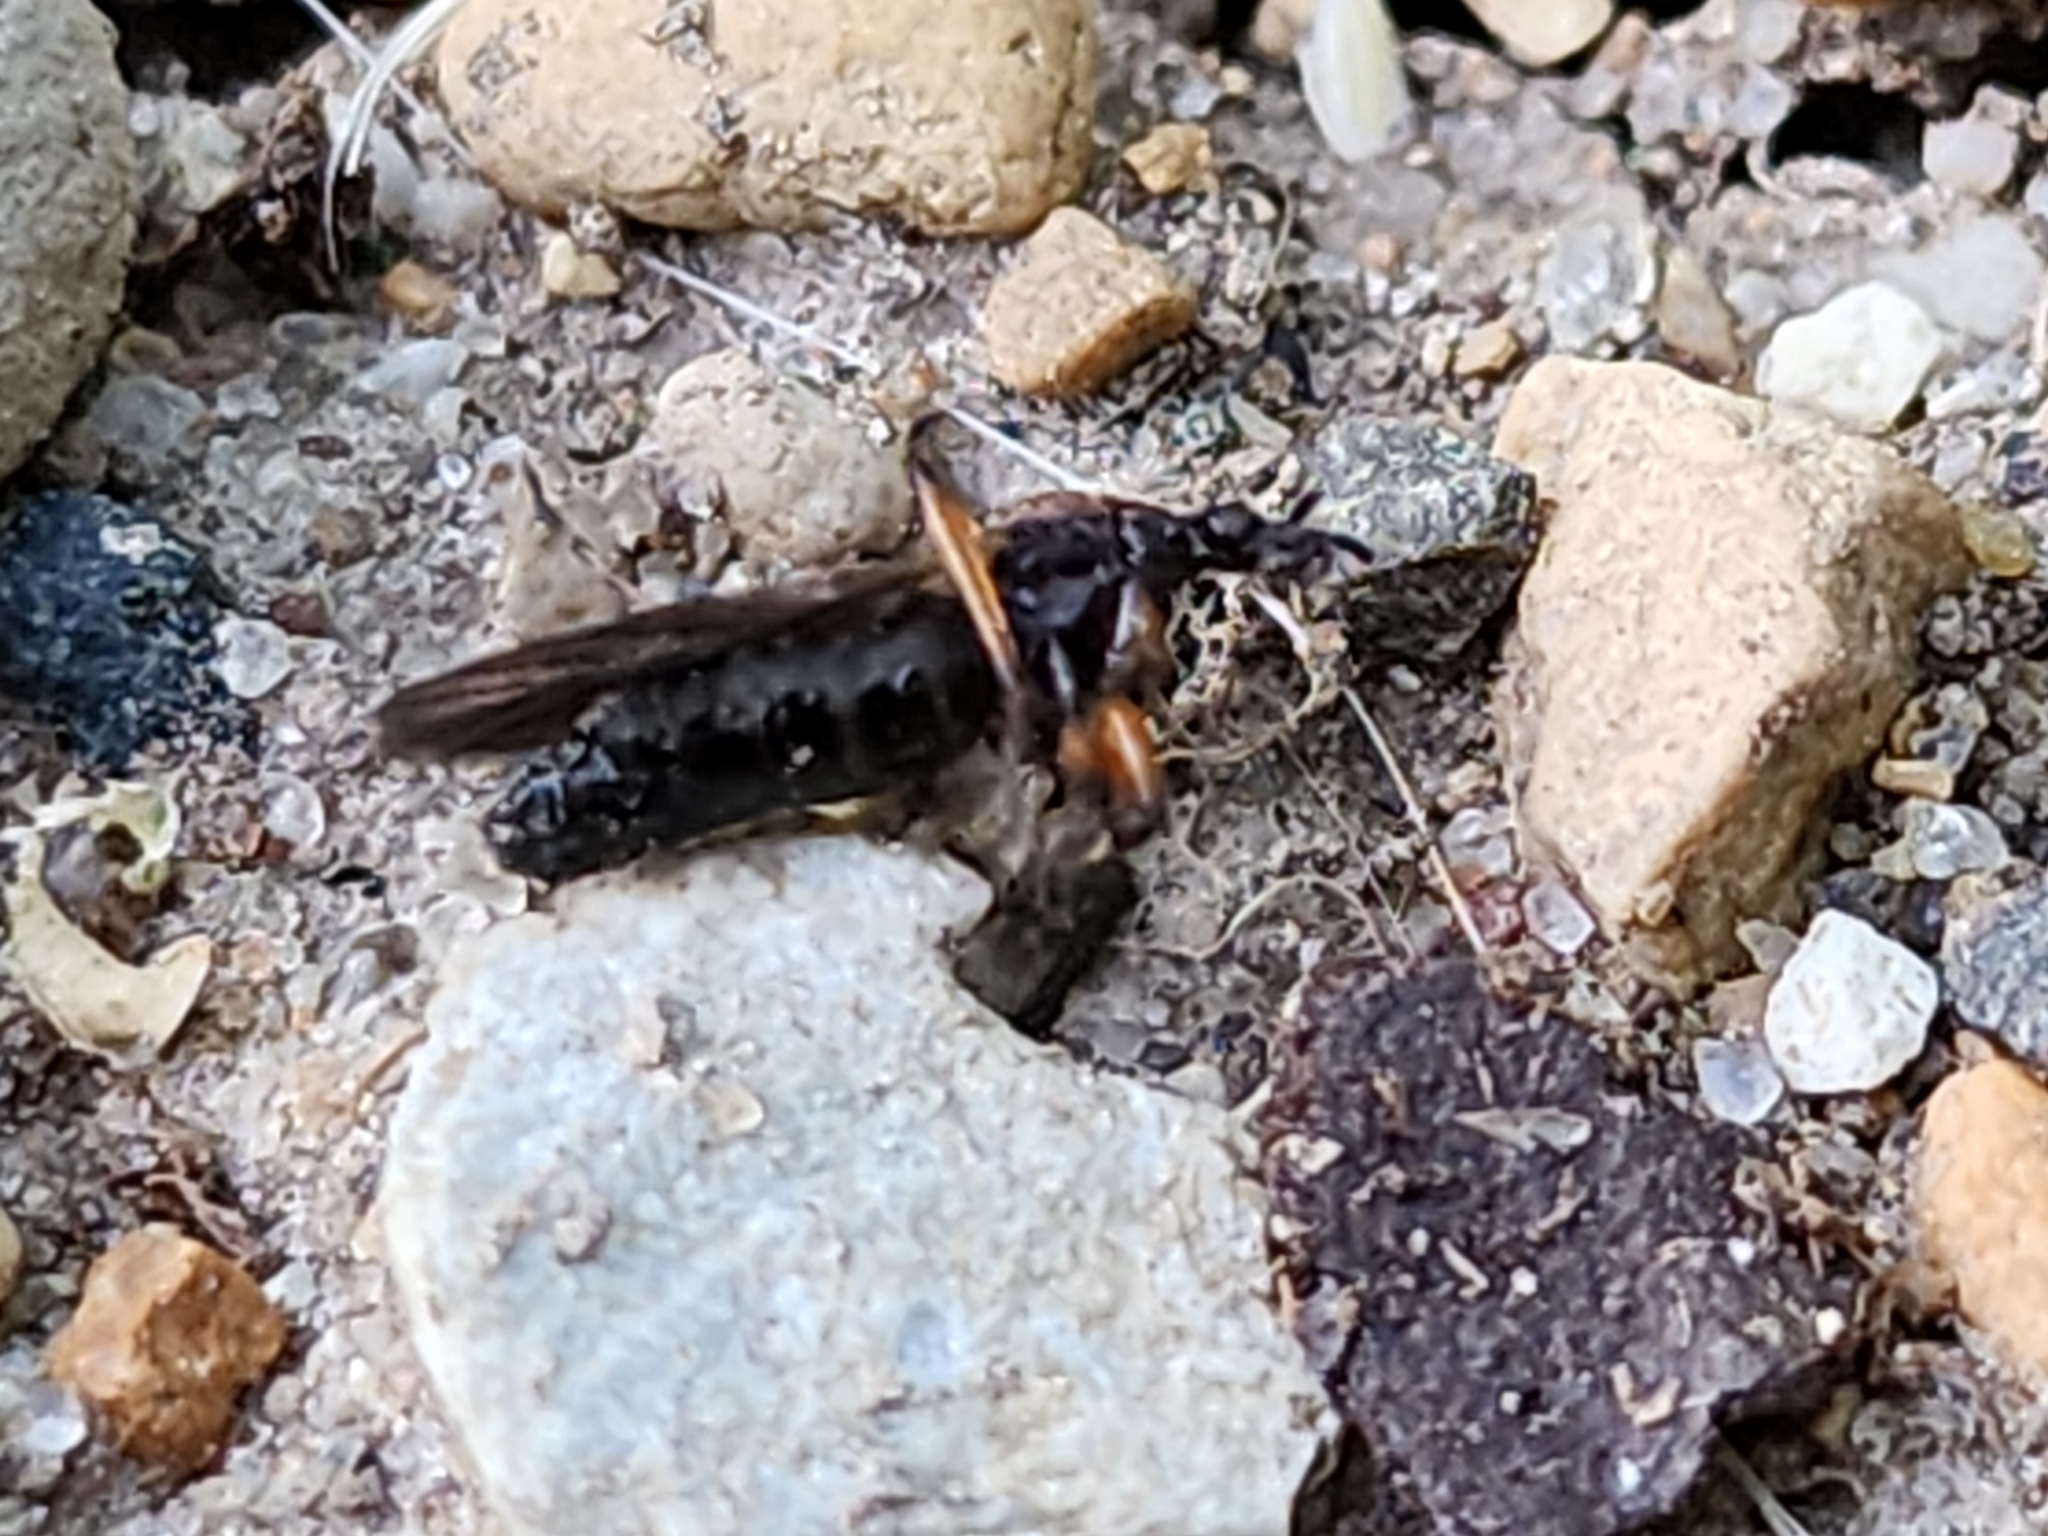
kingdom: Animalia
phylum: Arthropoda
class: Insecta
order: Diptera
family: Bibionidae
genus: Bibio
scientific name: Bibio articulatus
